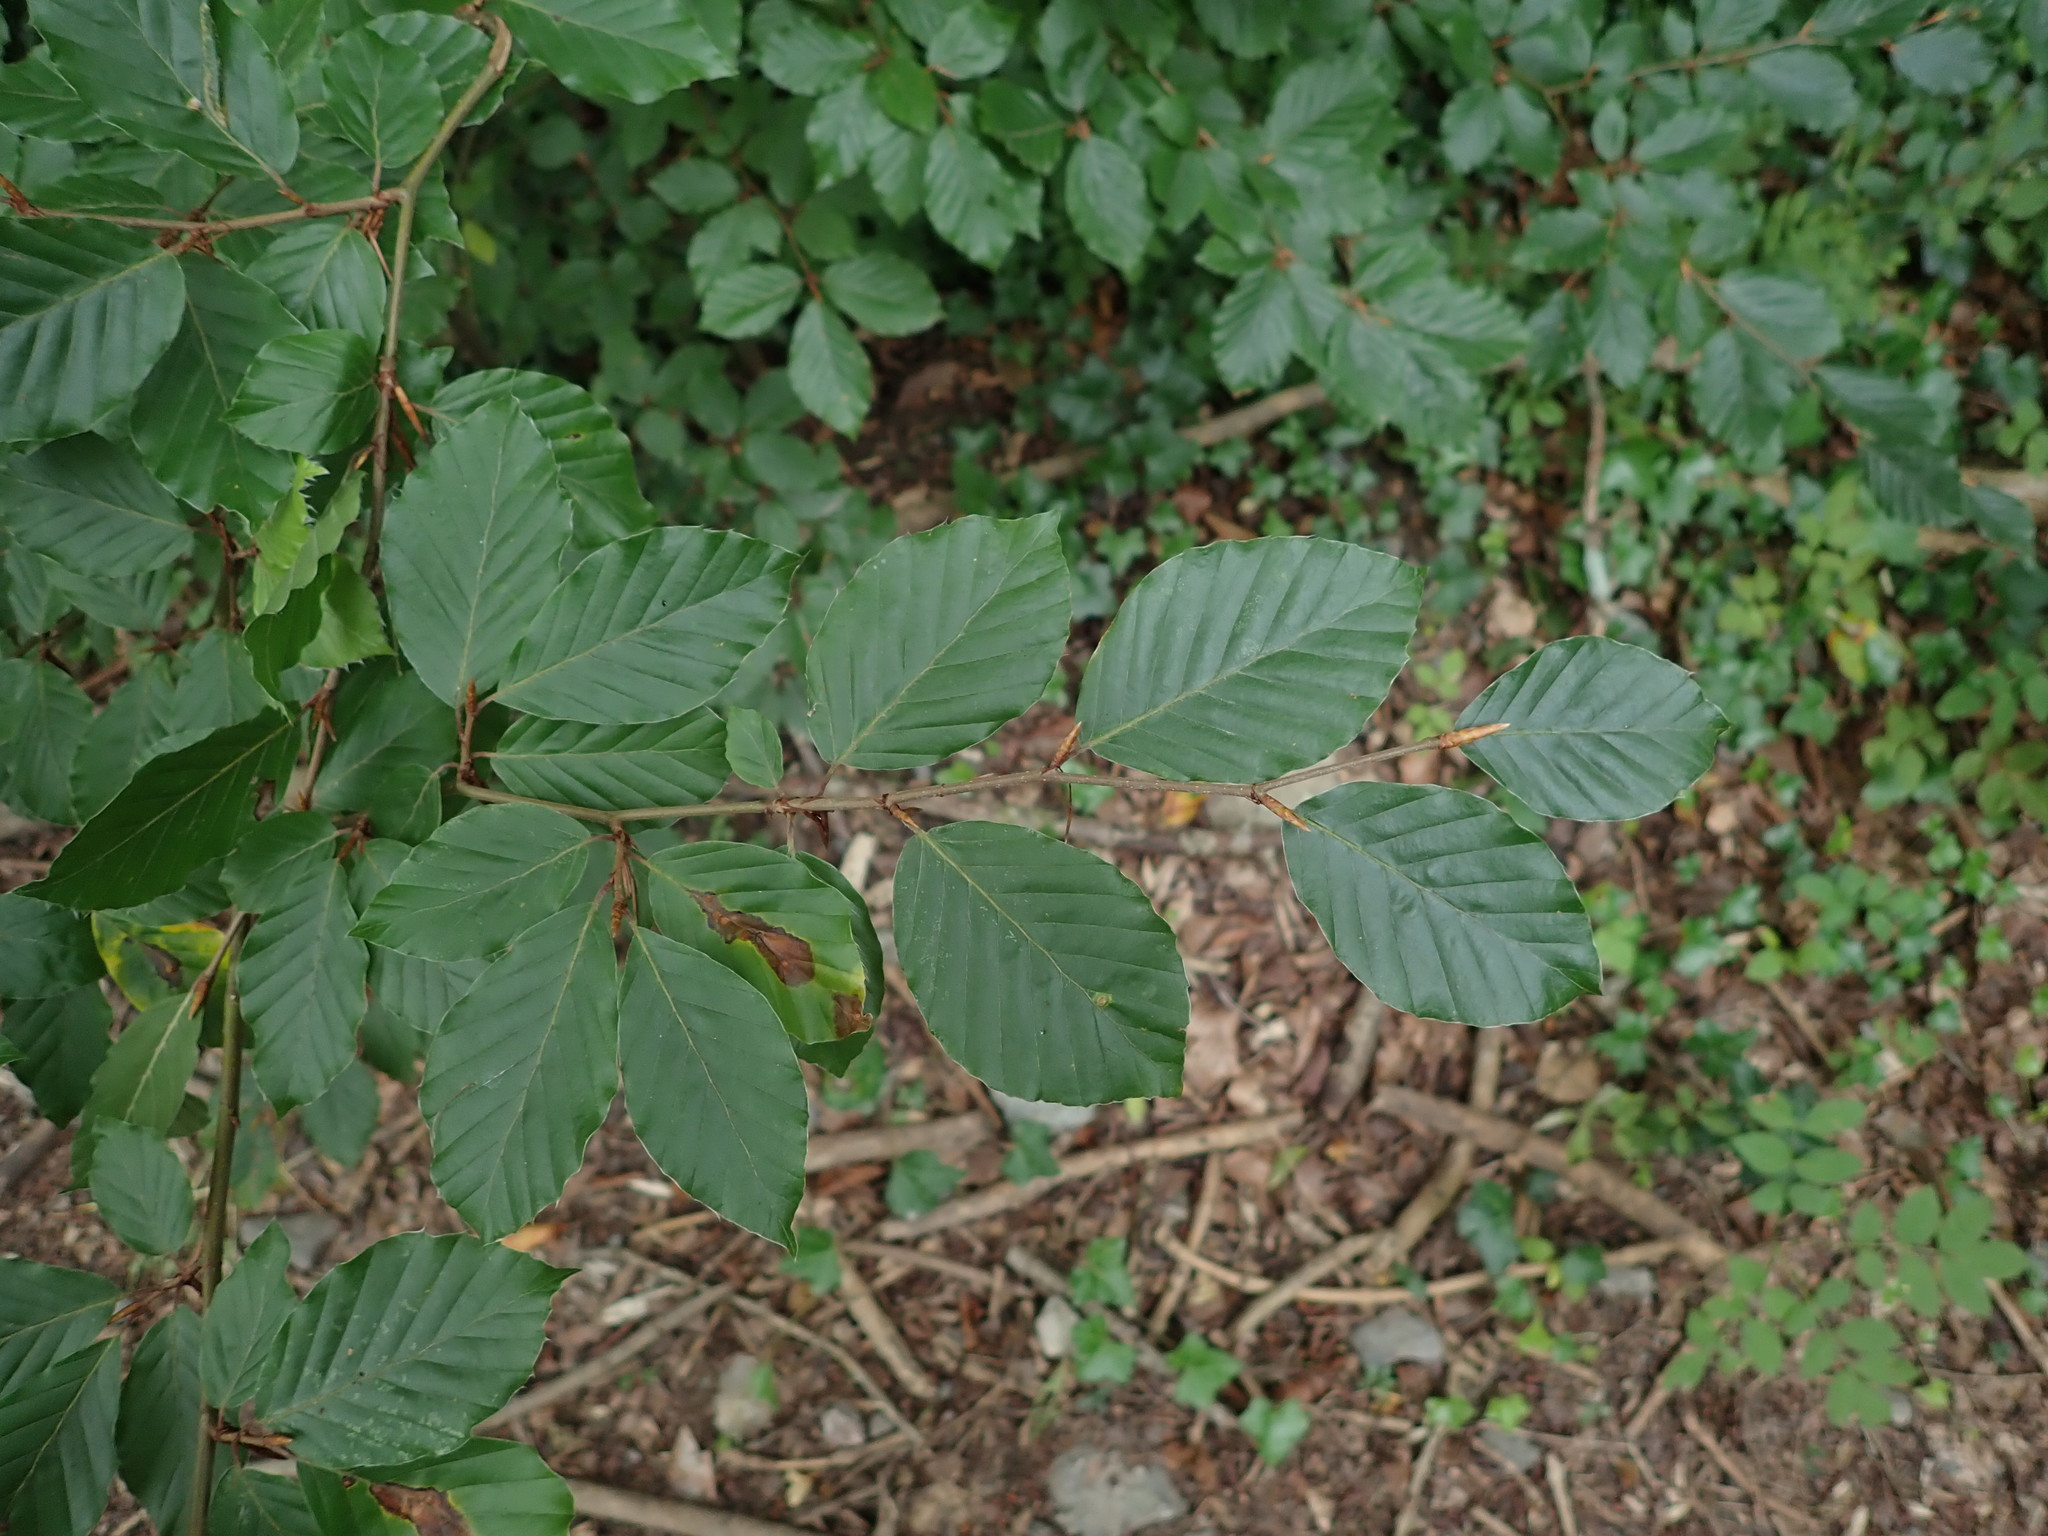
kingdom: Plantae
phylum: Tracheophyta
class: Magnoliopsida
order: Fagales
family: Fagaceae
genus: Fagus
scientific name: Fagus sylvatica
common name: Beech
